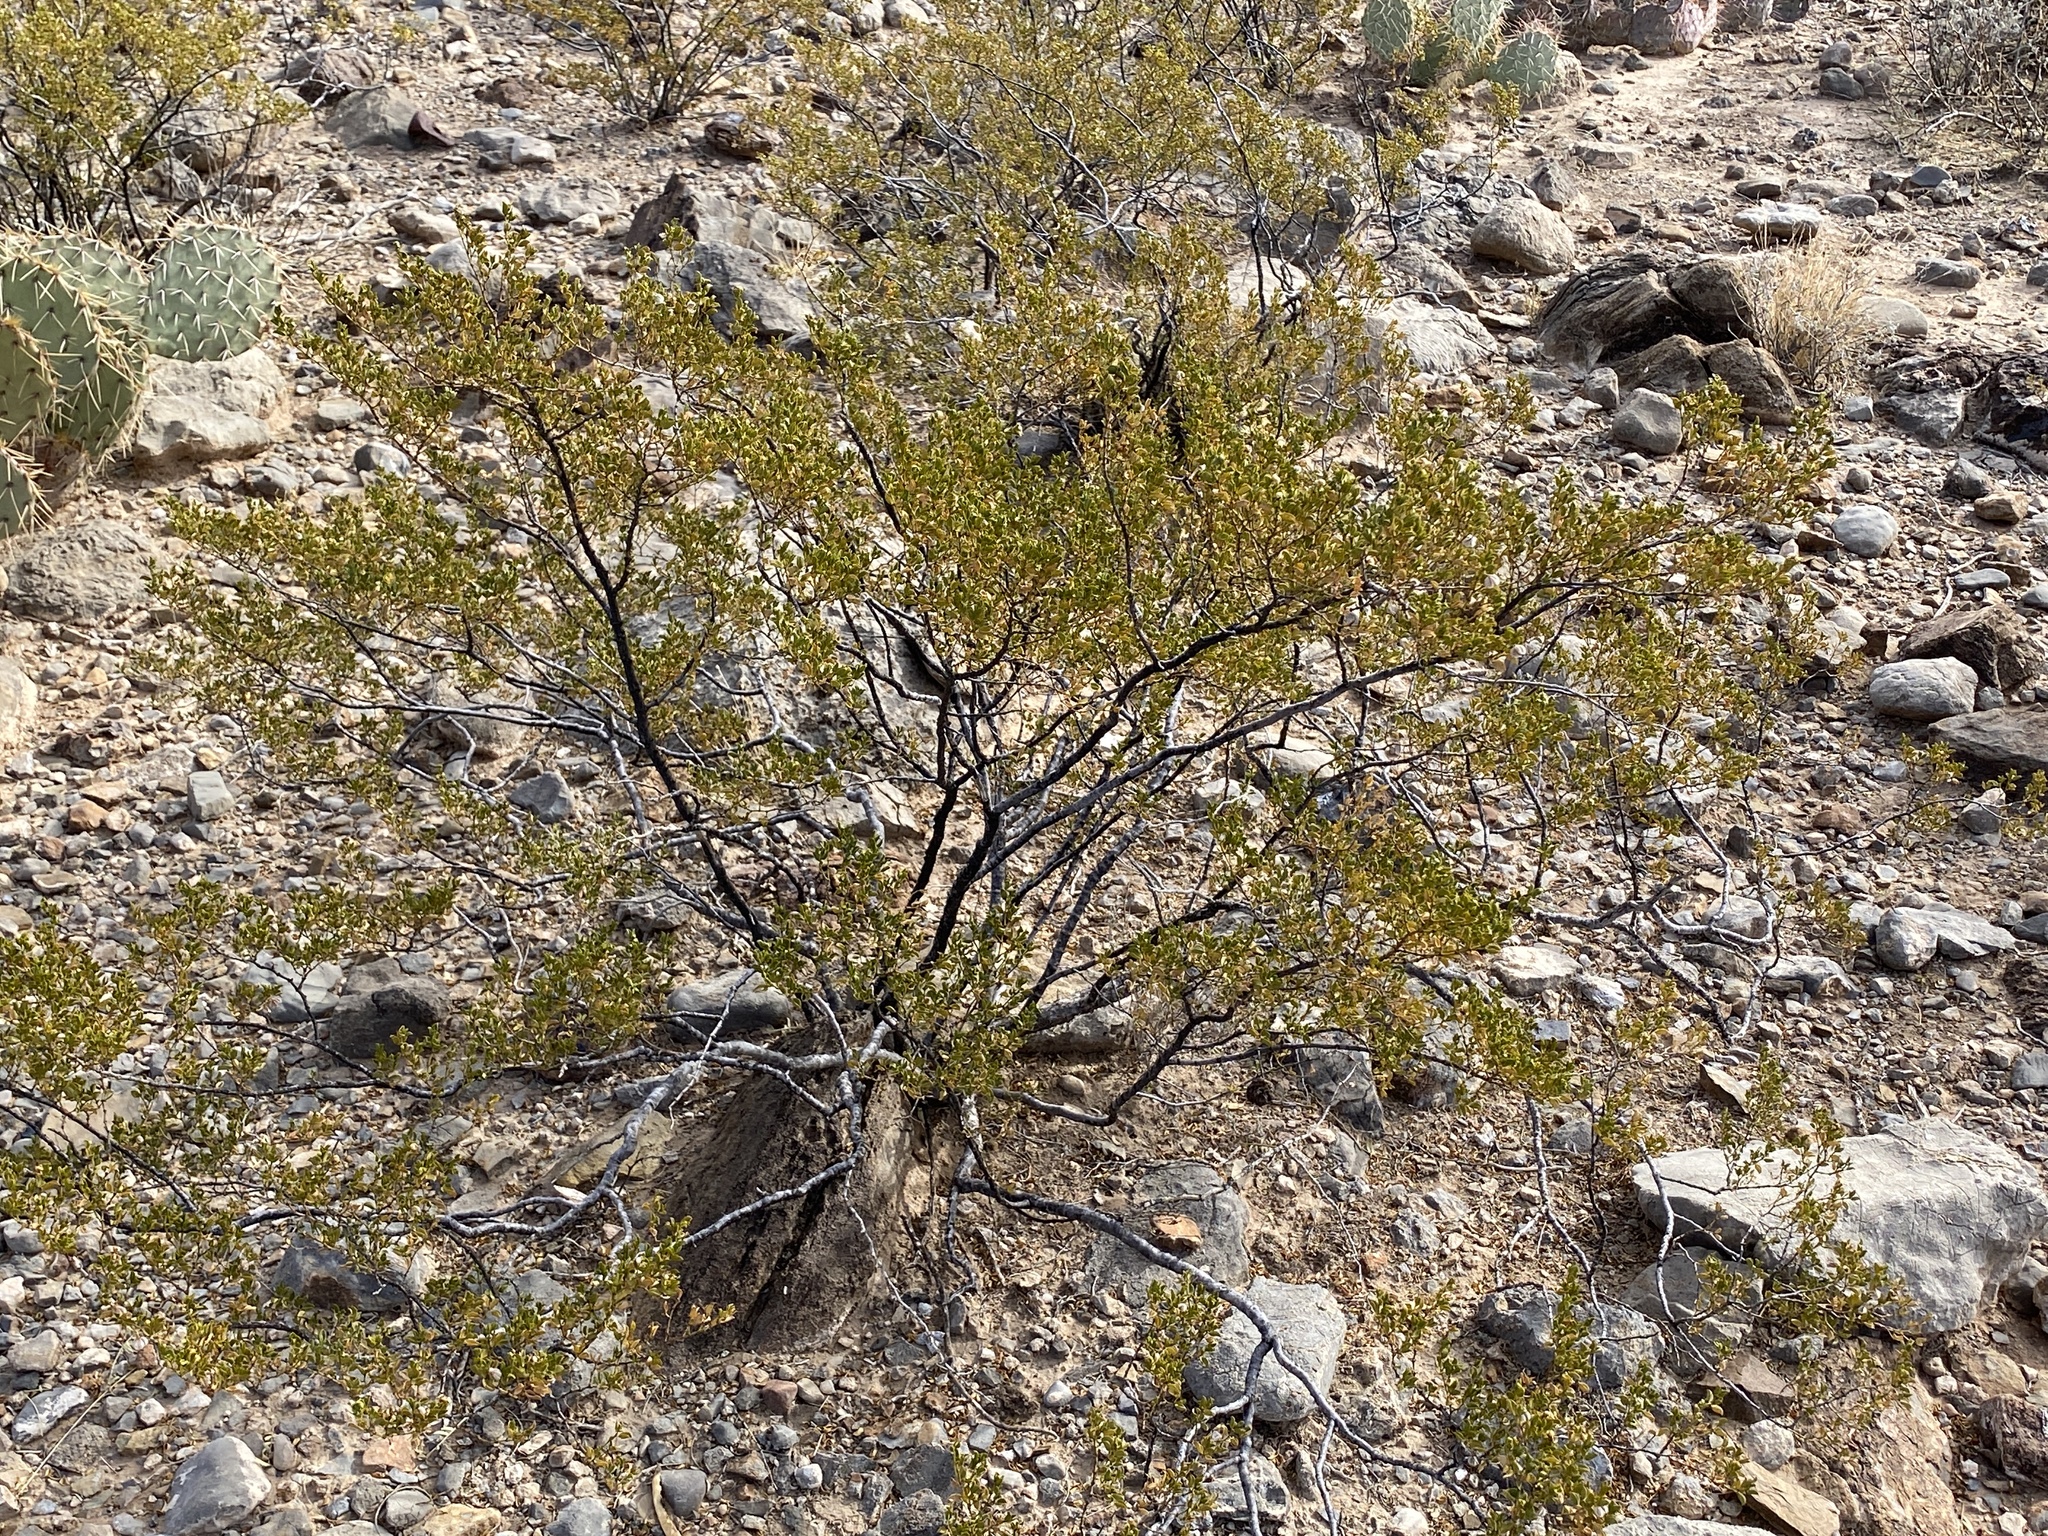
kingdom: Plantae
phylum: Tracheophyta
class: Magnoliopsida
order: Zygophyllales
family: Zygophyllaceae
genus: Larrea
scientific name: Larrea tridentata
